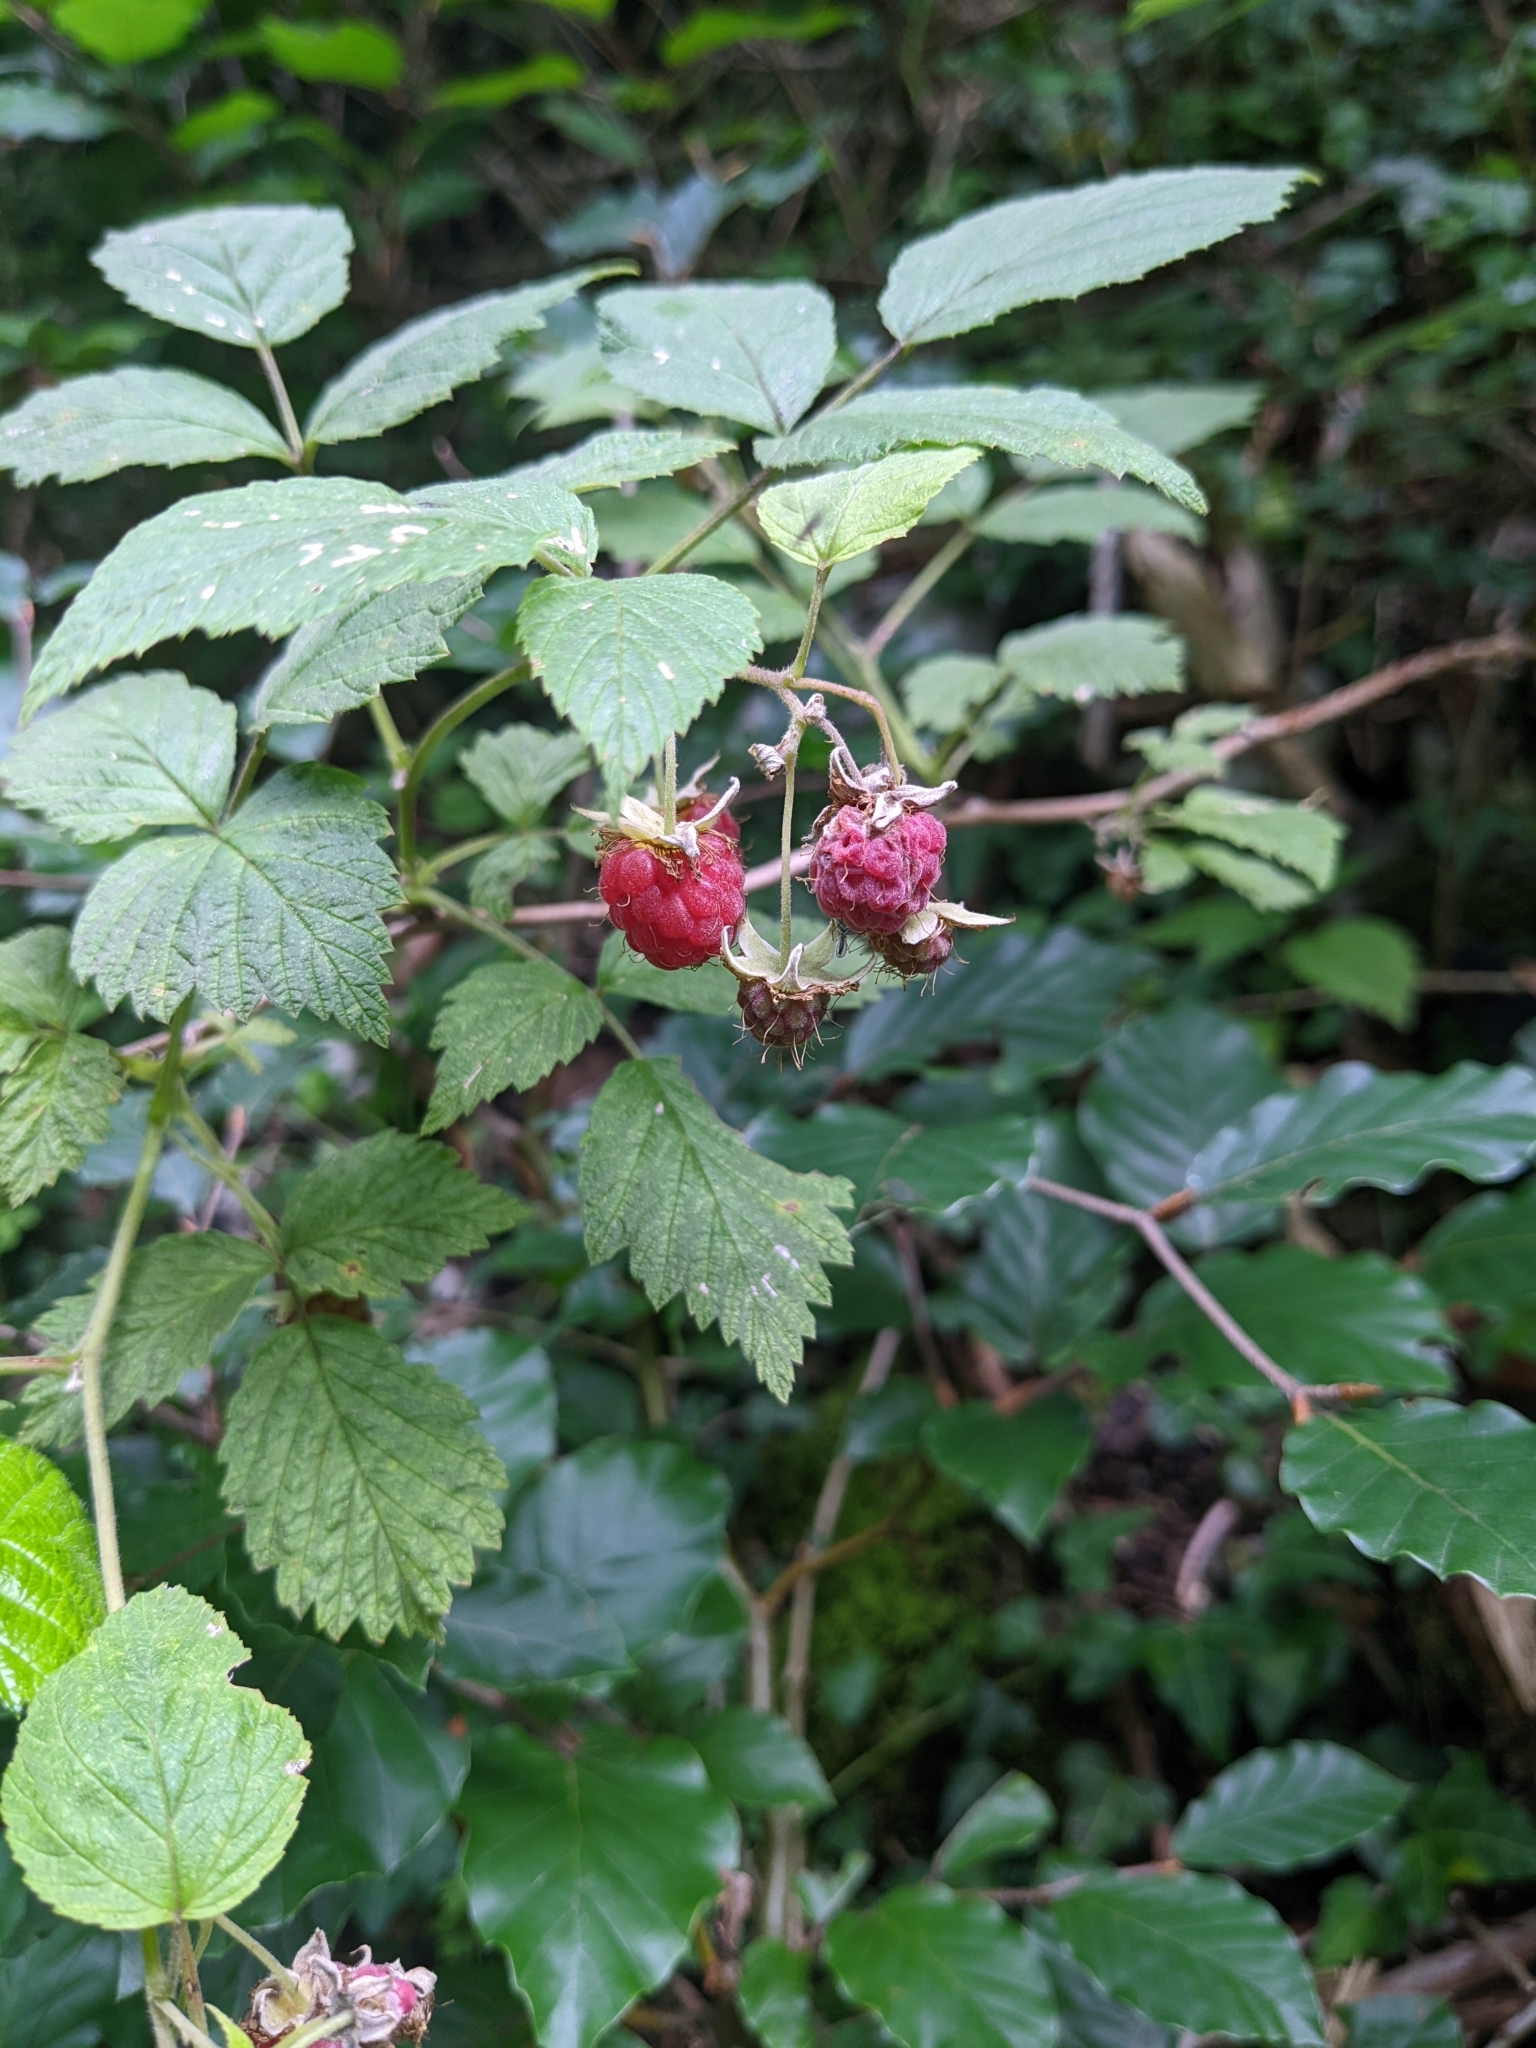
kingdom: Plantae
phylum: Tracheophyta
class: Magnoliopsida
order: Rosales
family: Rosaceae
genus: Rubus
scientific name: Rubus idaeus
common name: Raspberry
